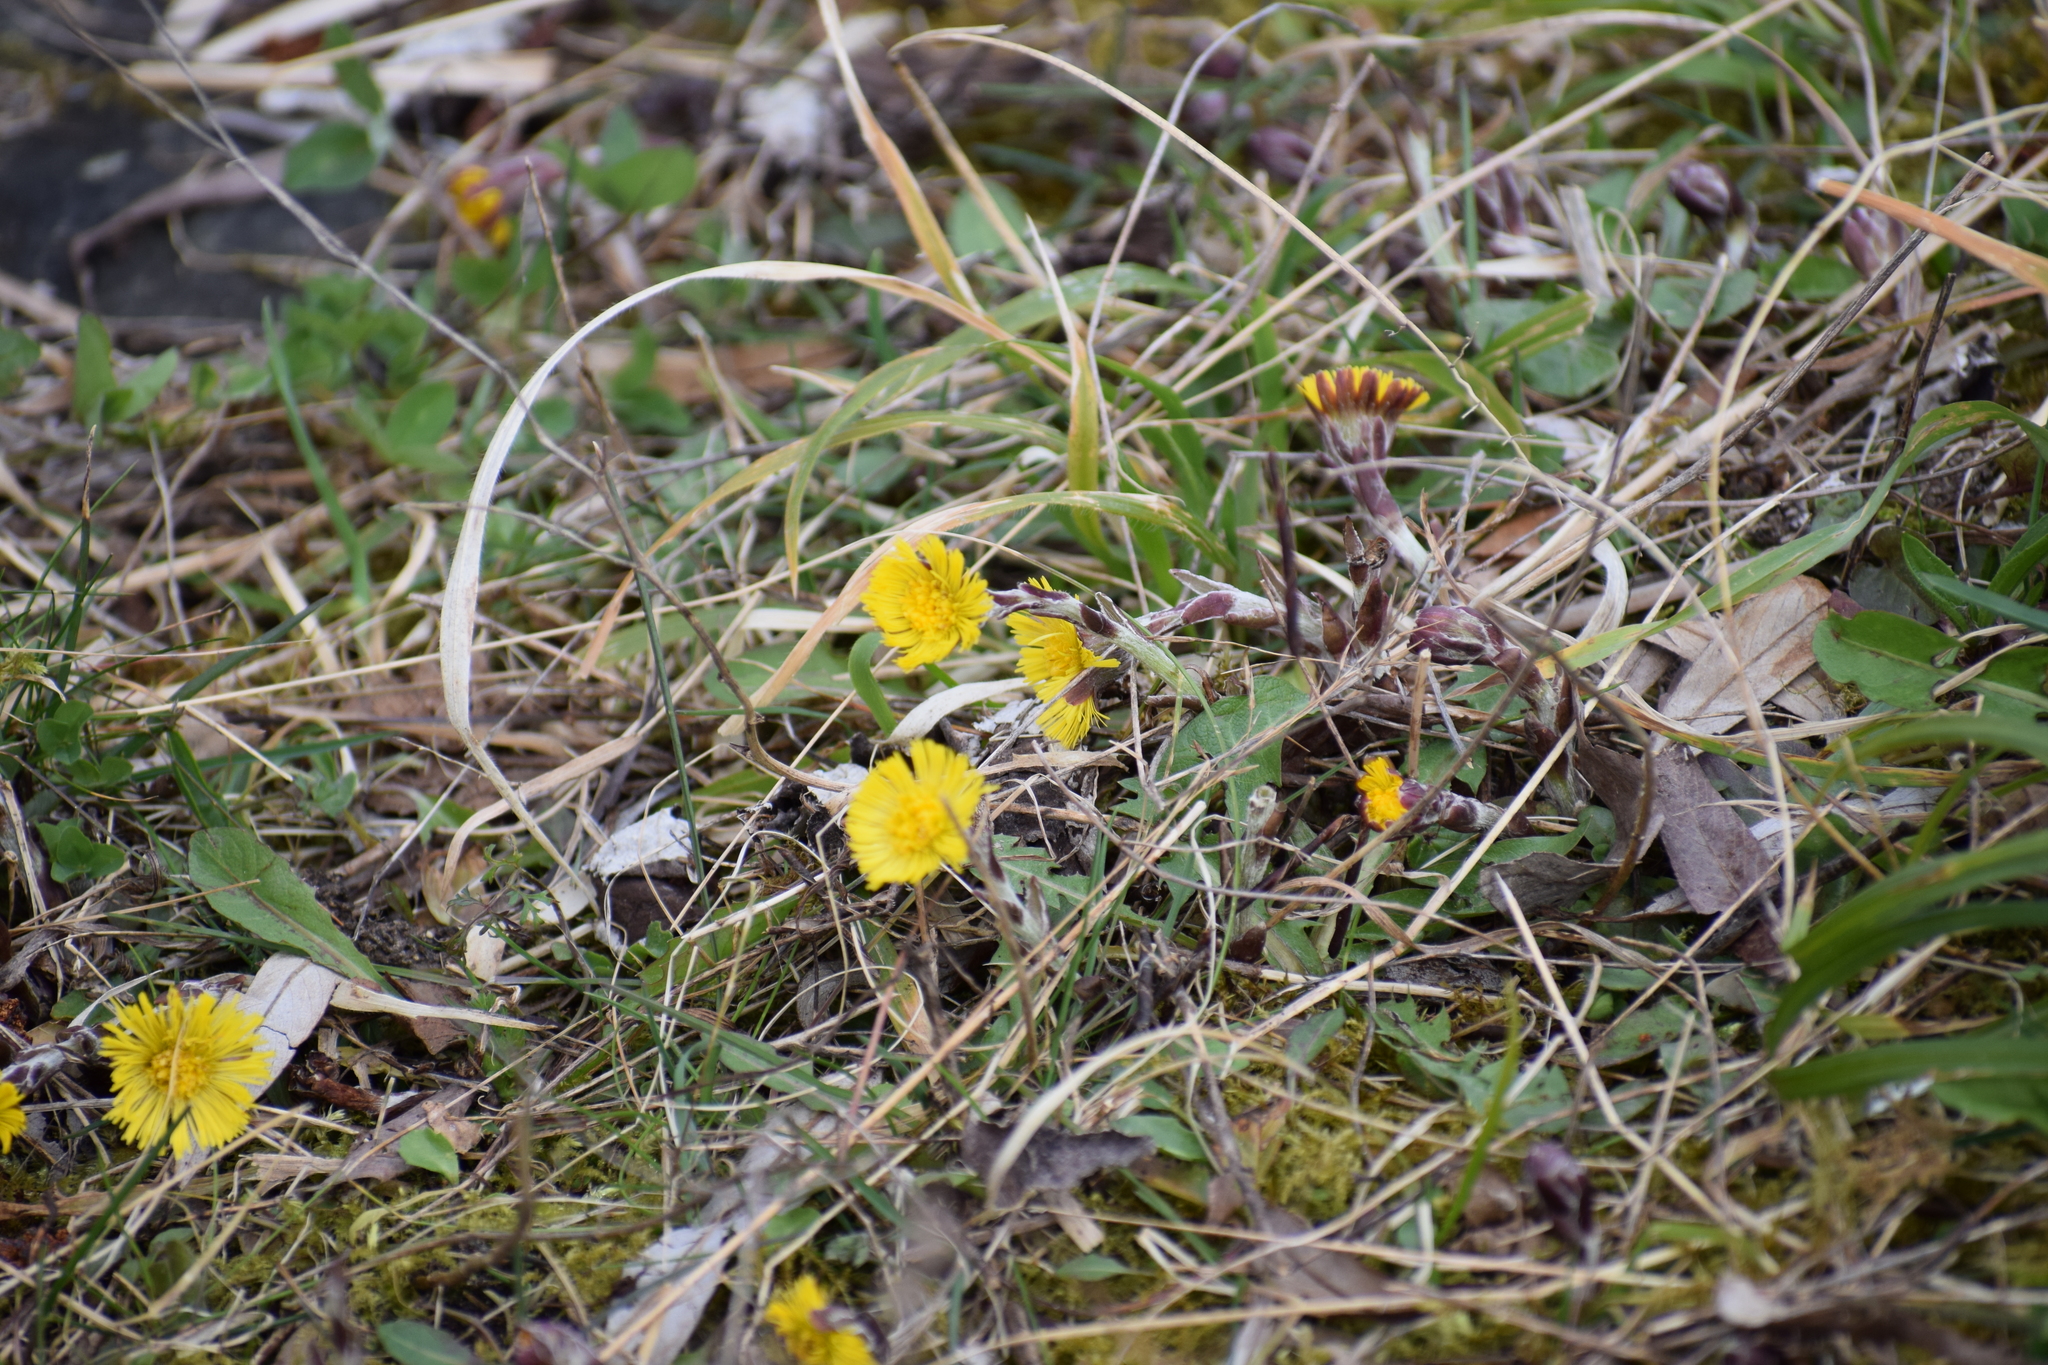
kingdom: Plantae
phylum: Tracheophyta
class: Magnoliopsida
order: Asterales
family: Asteraceae
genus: Tussilago
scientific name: Tussilago farfara
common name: Coltsfoot
